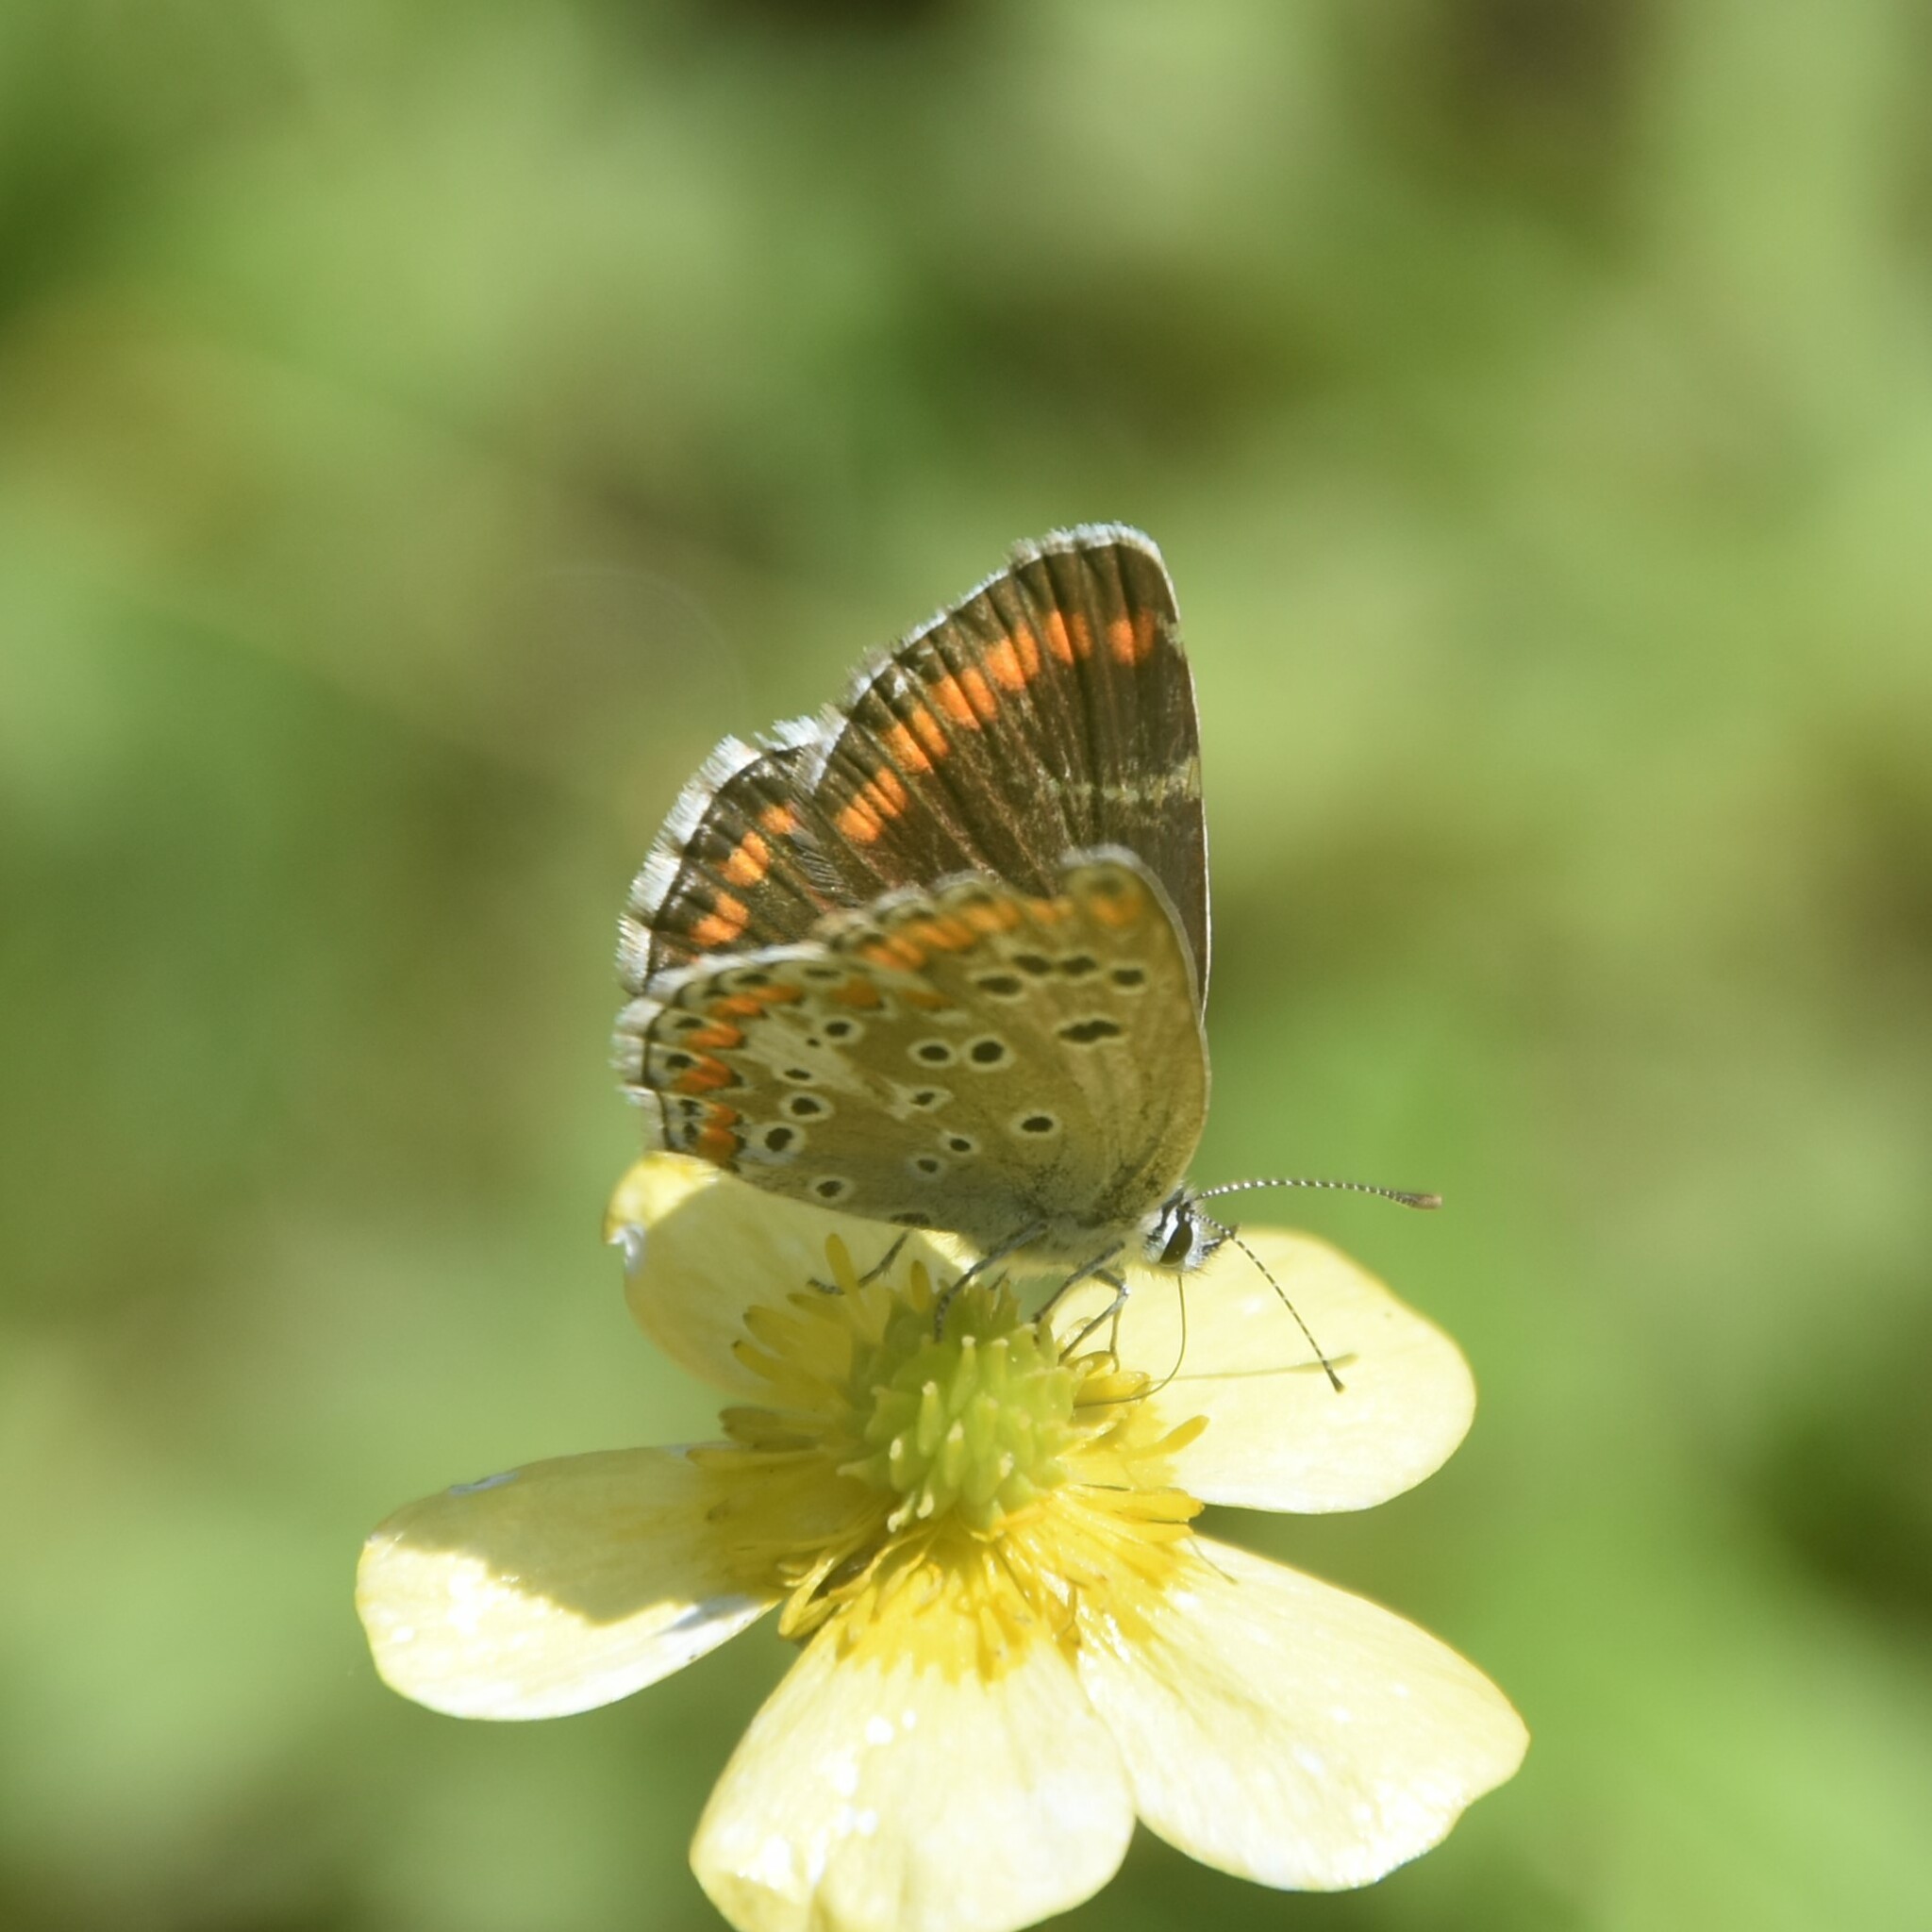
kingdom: Animalia
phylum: Arthropoda
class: Insecta
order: Lepidoptera
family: Lycaenidae
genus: Aricia
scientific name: Aricia agestis
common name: Brown argus
